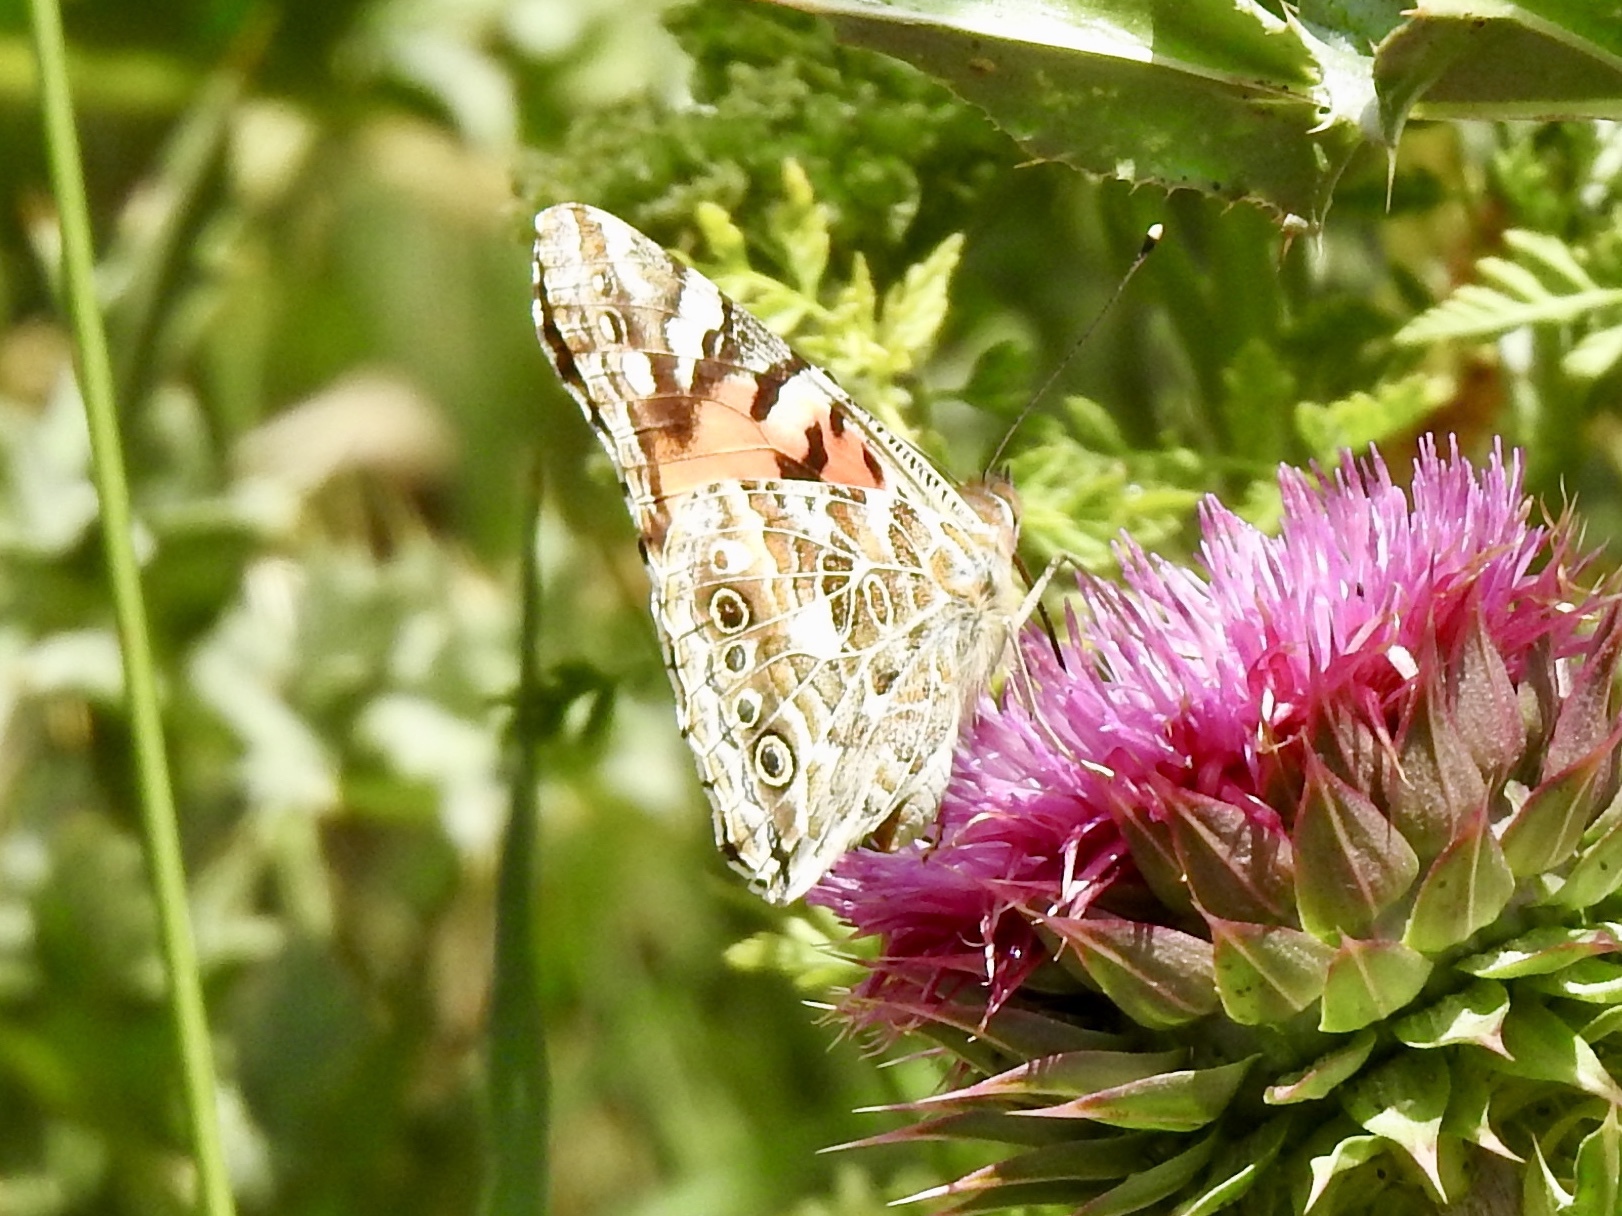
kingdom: Animalia
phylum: Arthropoda
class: Insecta
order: Lepidoptera
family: Nymphalidae
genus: Vanessa
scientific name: Vanessa cardui
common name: Painted lady
